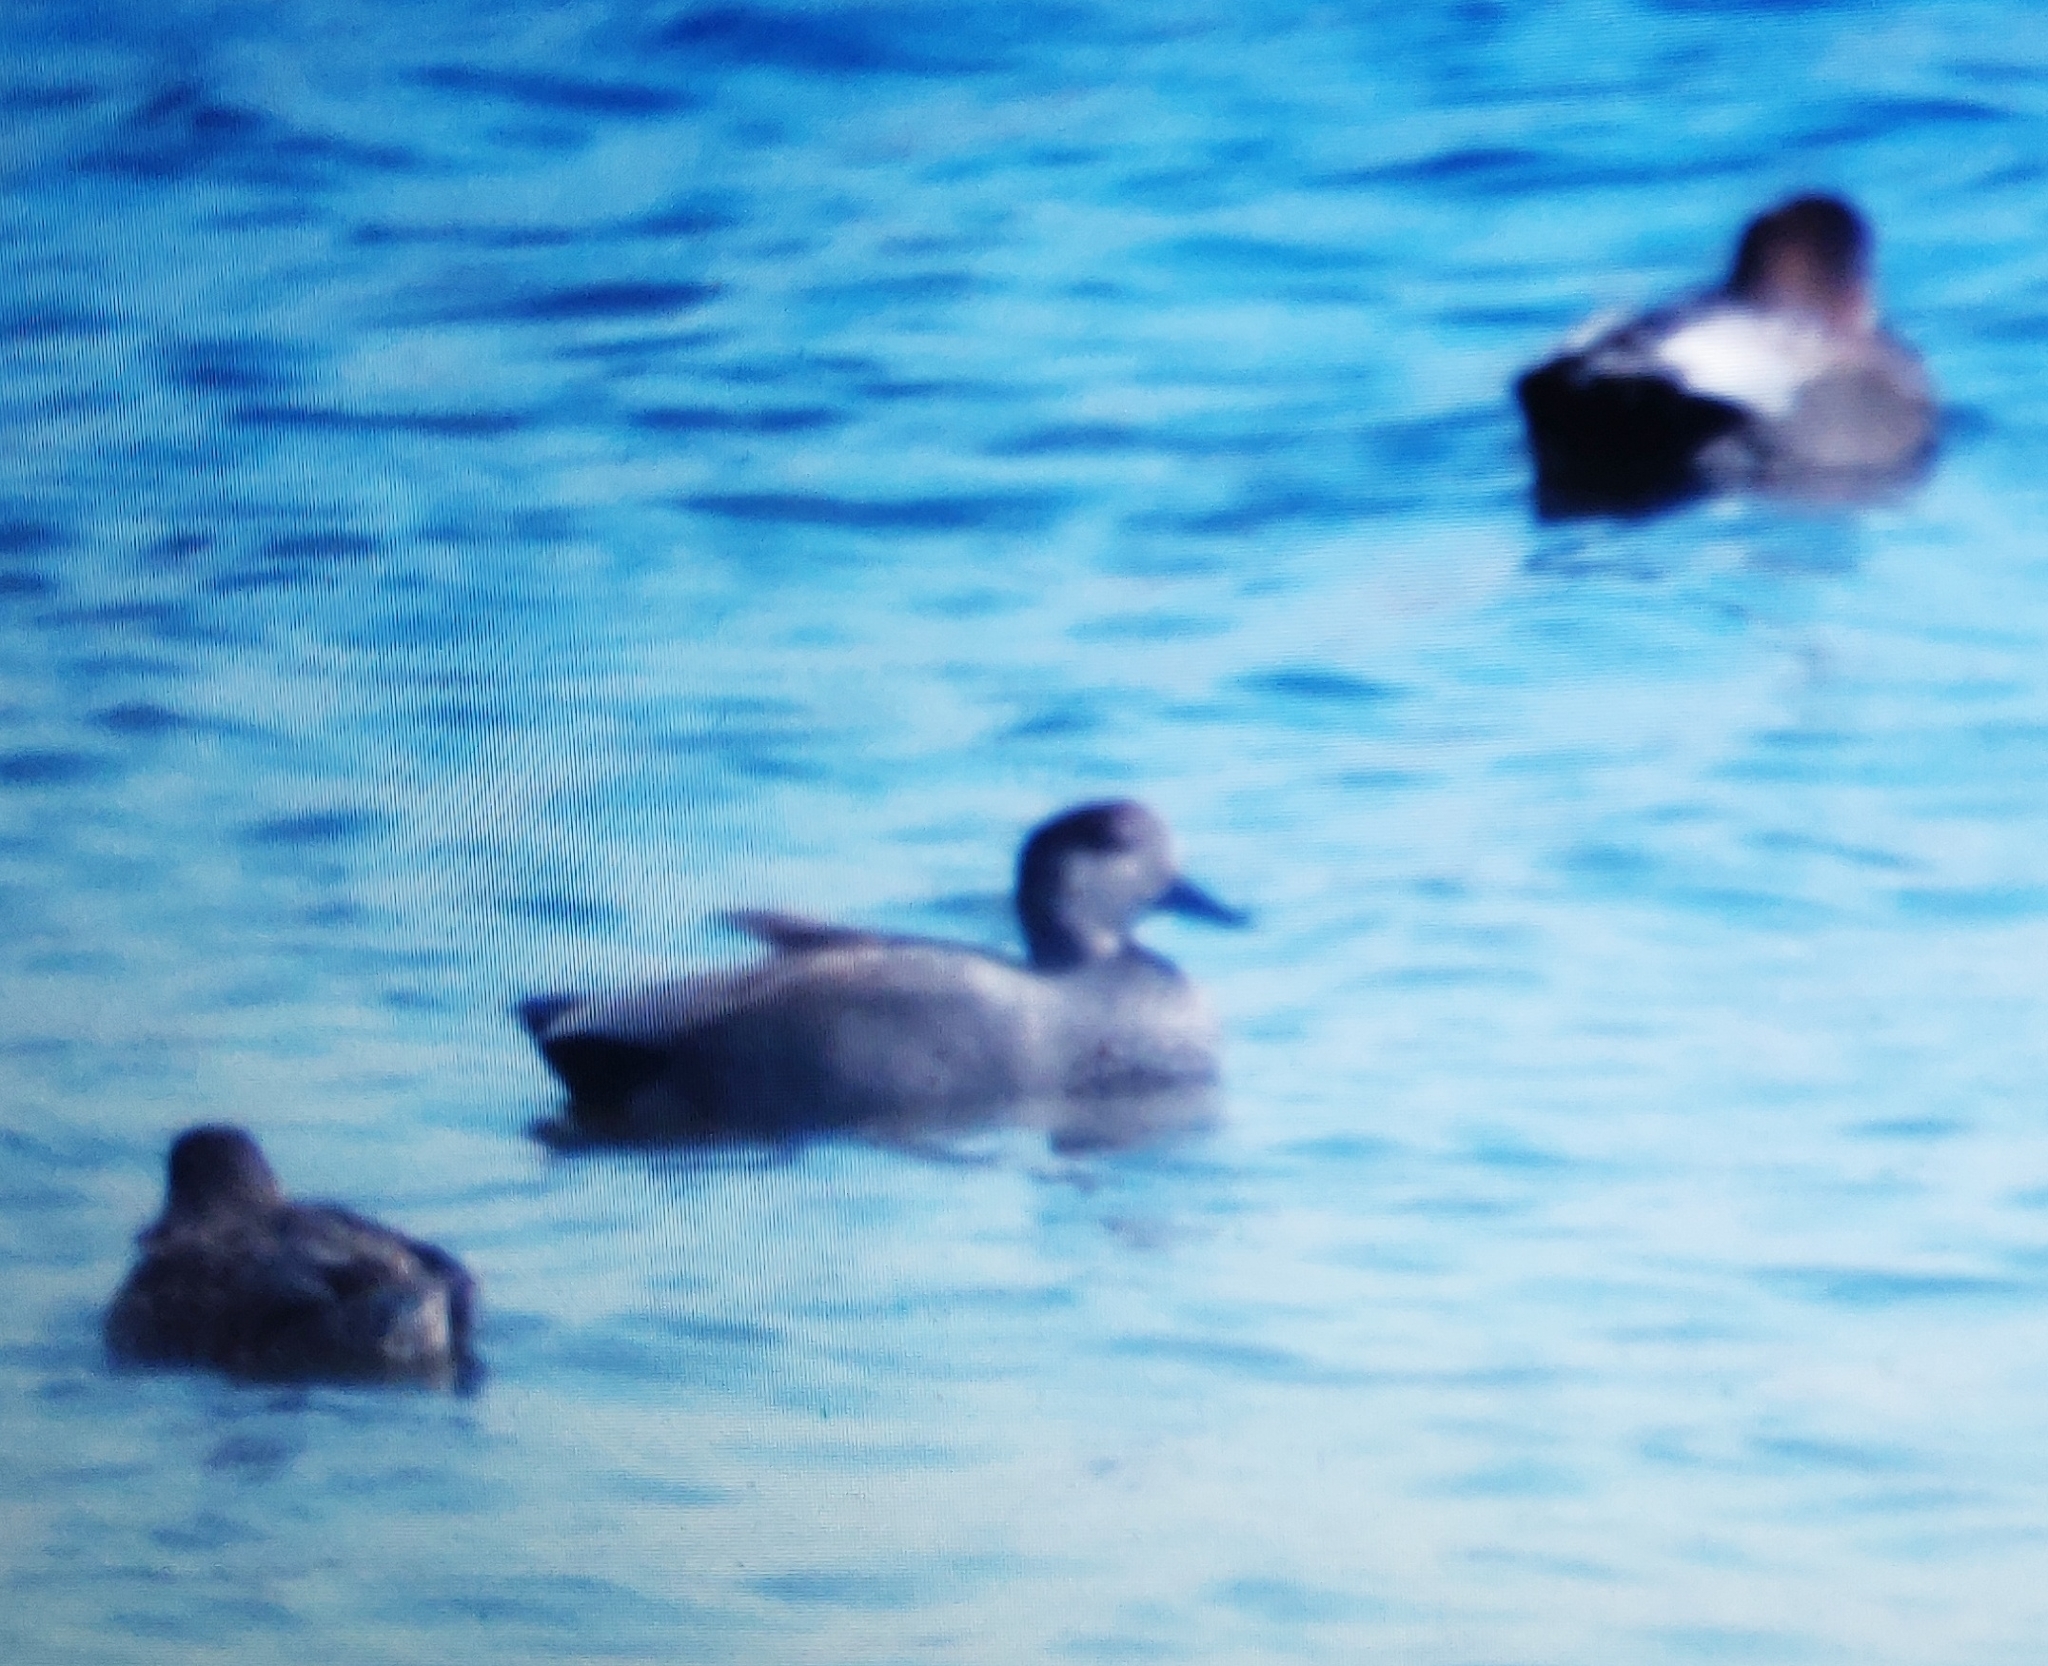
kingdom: Animalia
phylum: Chordata
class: Aves
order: Anseriformes
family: Anatidae
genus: Mareca
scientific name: Mareca strepera
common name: Gadwall
